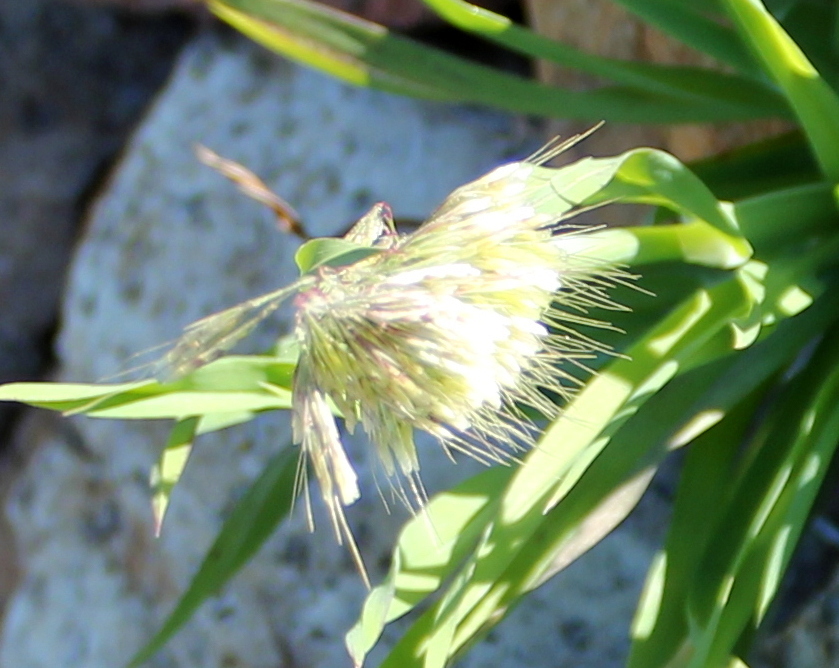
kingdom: Plantae
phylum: Tracheophyta
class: Liliopsida
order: Poales
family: Poaceae
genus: Lamarckia
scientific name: Lamarckia aurea
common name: Golden dog's-tail
